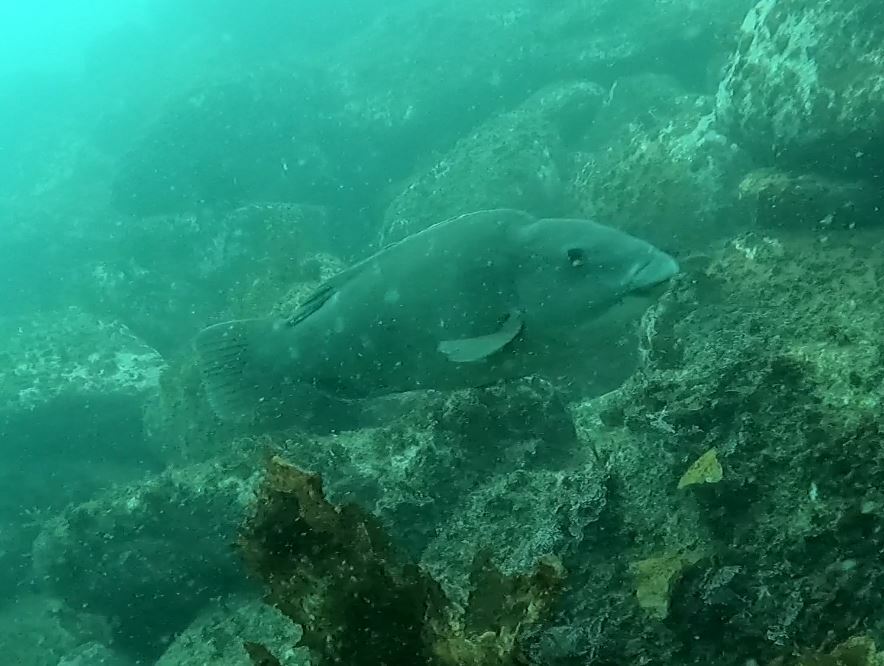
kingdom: Animalia
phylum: Chordata
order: Perciformes
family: Labridae
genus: Achoerodus
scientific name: Achoerodus viridis
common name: Brown groper
